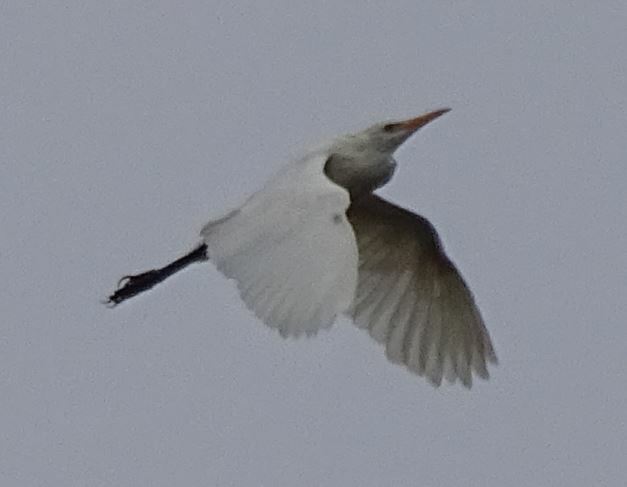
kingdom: Animalia
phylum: Chordata
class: Aves
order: Pelecaniformes
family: Ardeidae
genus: Bubulcus
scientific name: Bubulcus ibis
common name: Cattle egret
